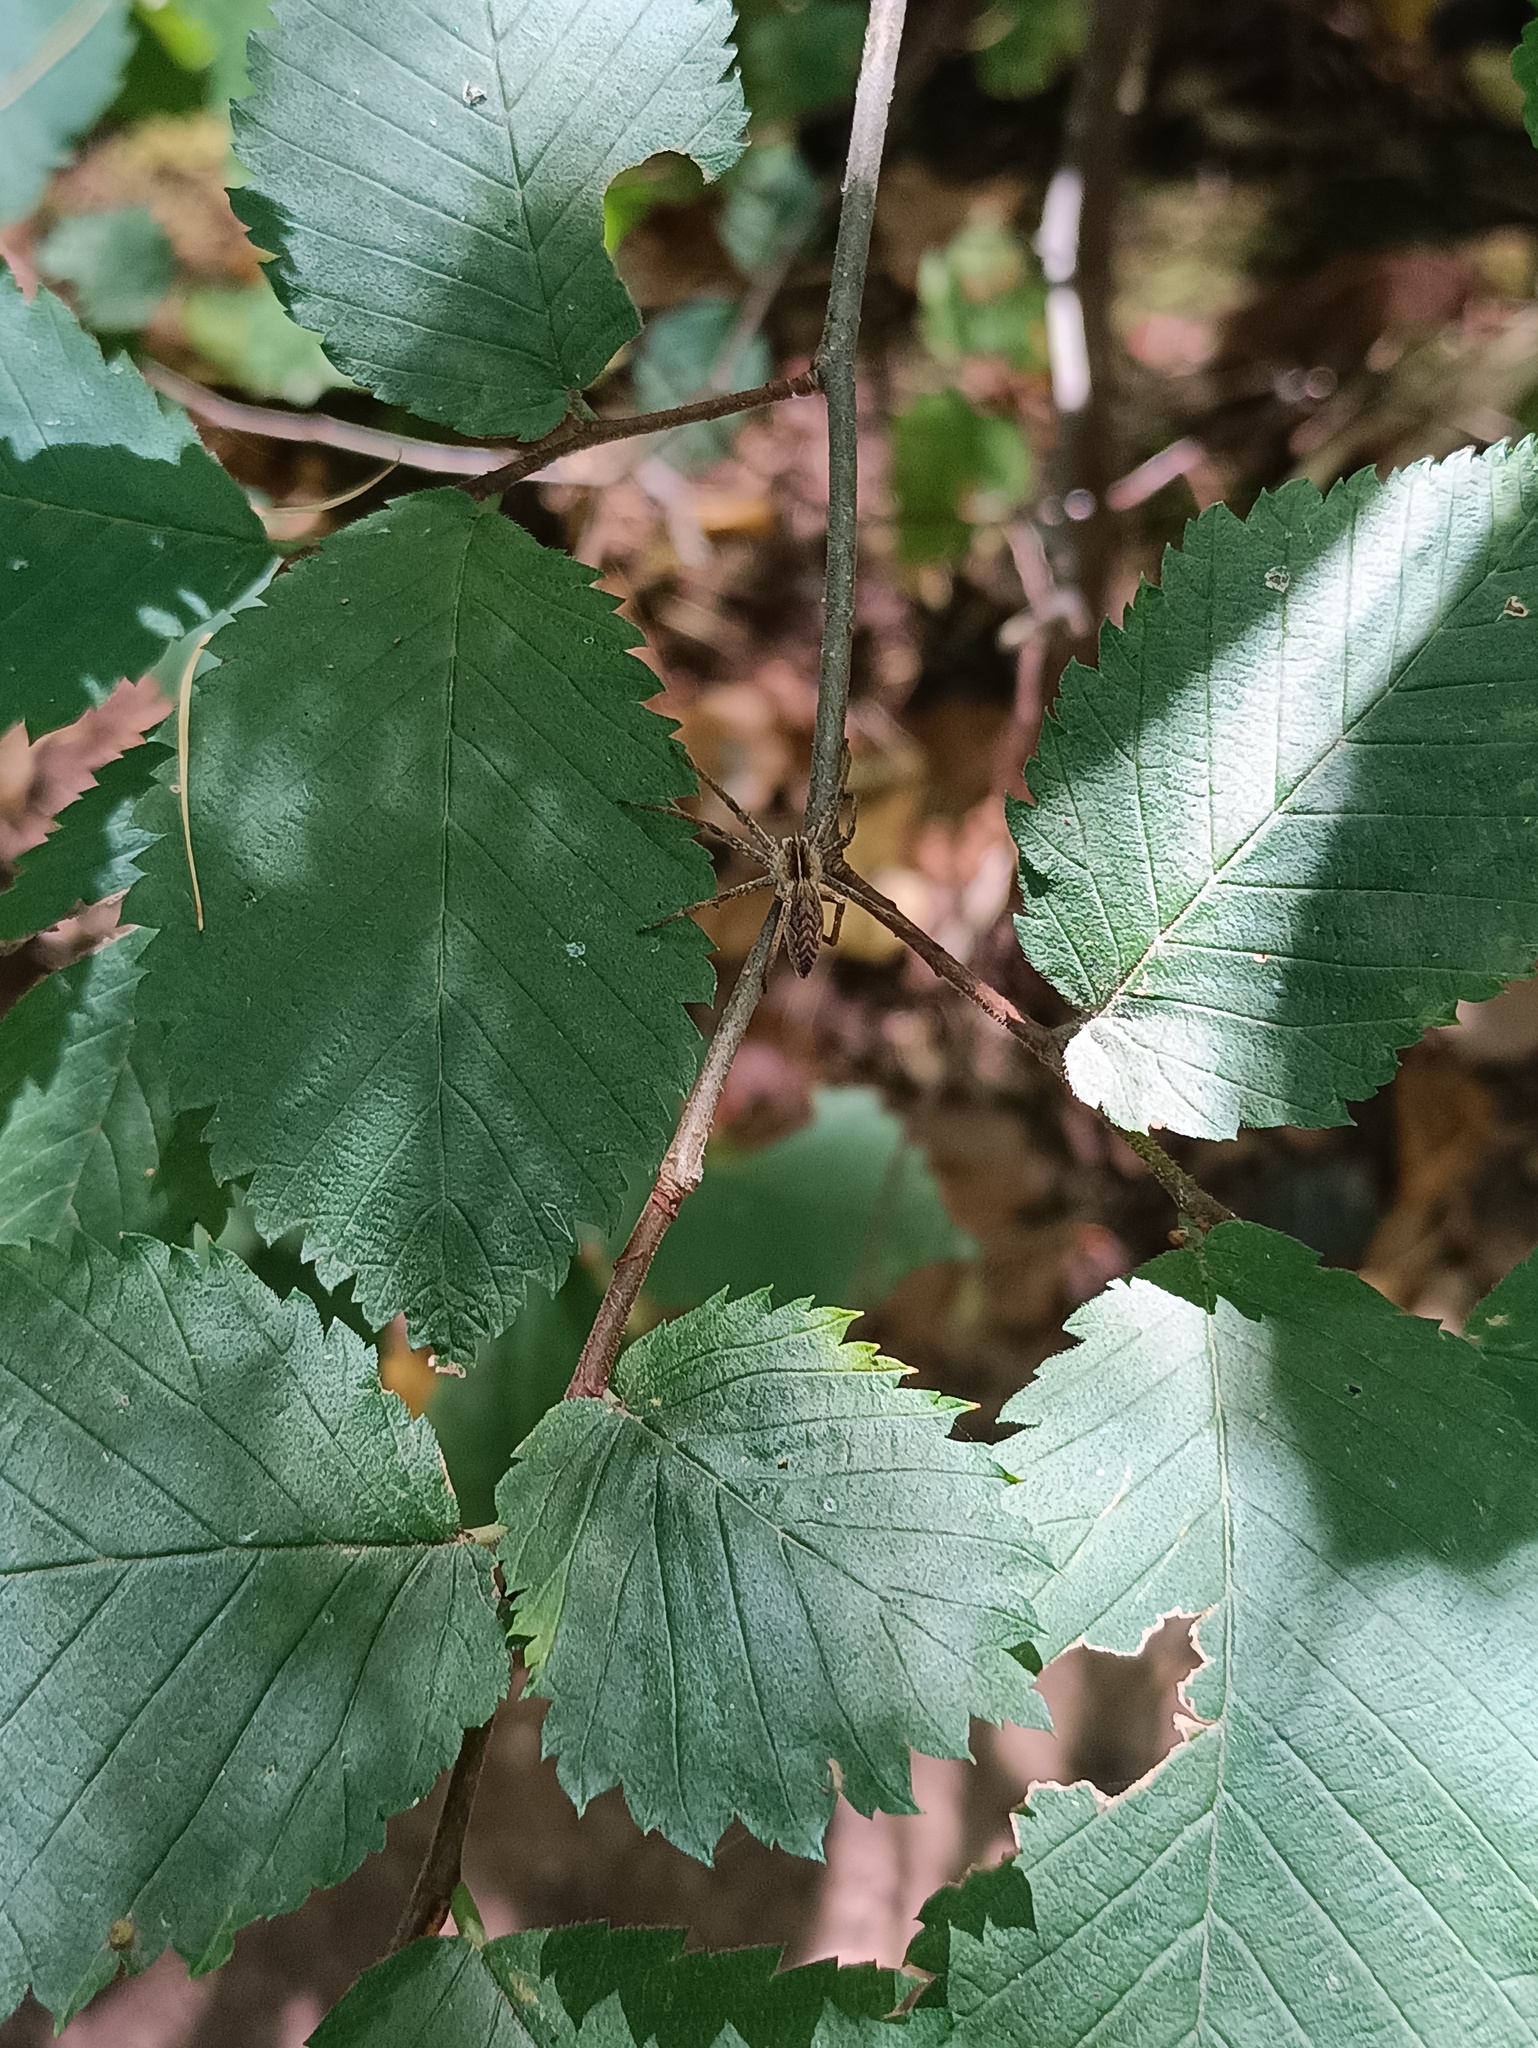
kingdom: Animalia
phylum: Arthropoda
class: Arachnida
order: Araneae
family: Pisauridae
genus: Pisaura
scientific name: Pisaura mirabilis
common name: Tent spider
